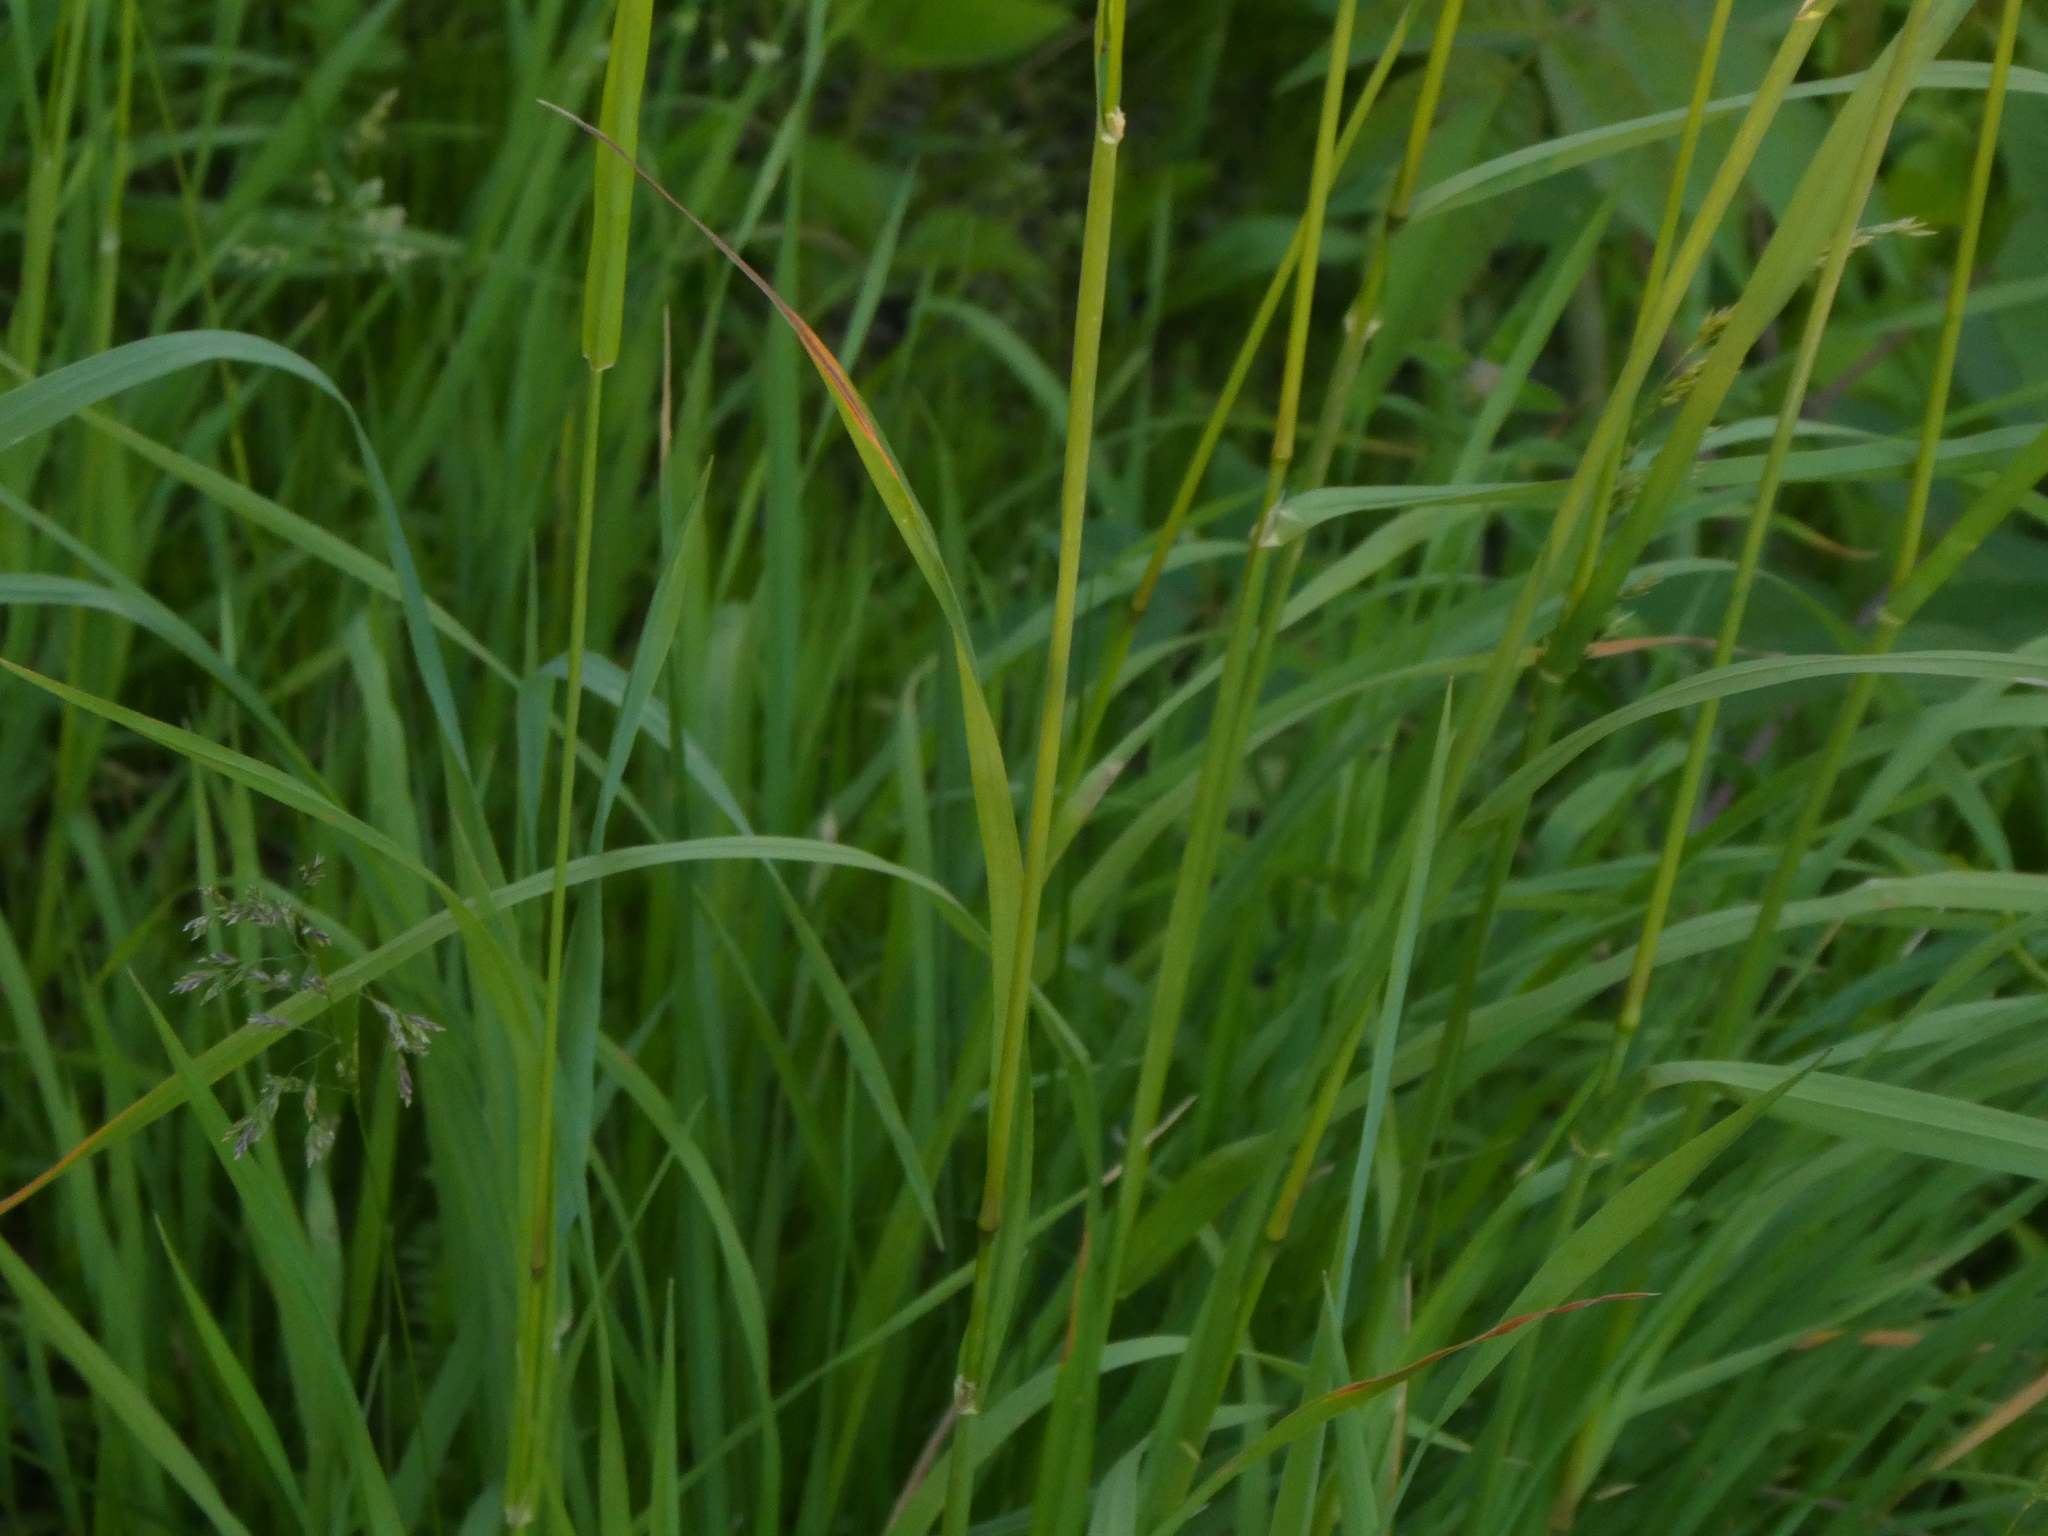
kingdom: Plantae
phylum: Tracheophyta
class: Liliopsida
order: Poales
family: Poaceae
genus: Dactylis
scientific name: Dactylis glomerata
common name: Orchardgrass
